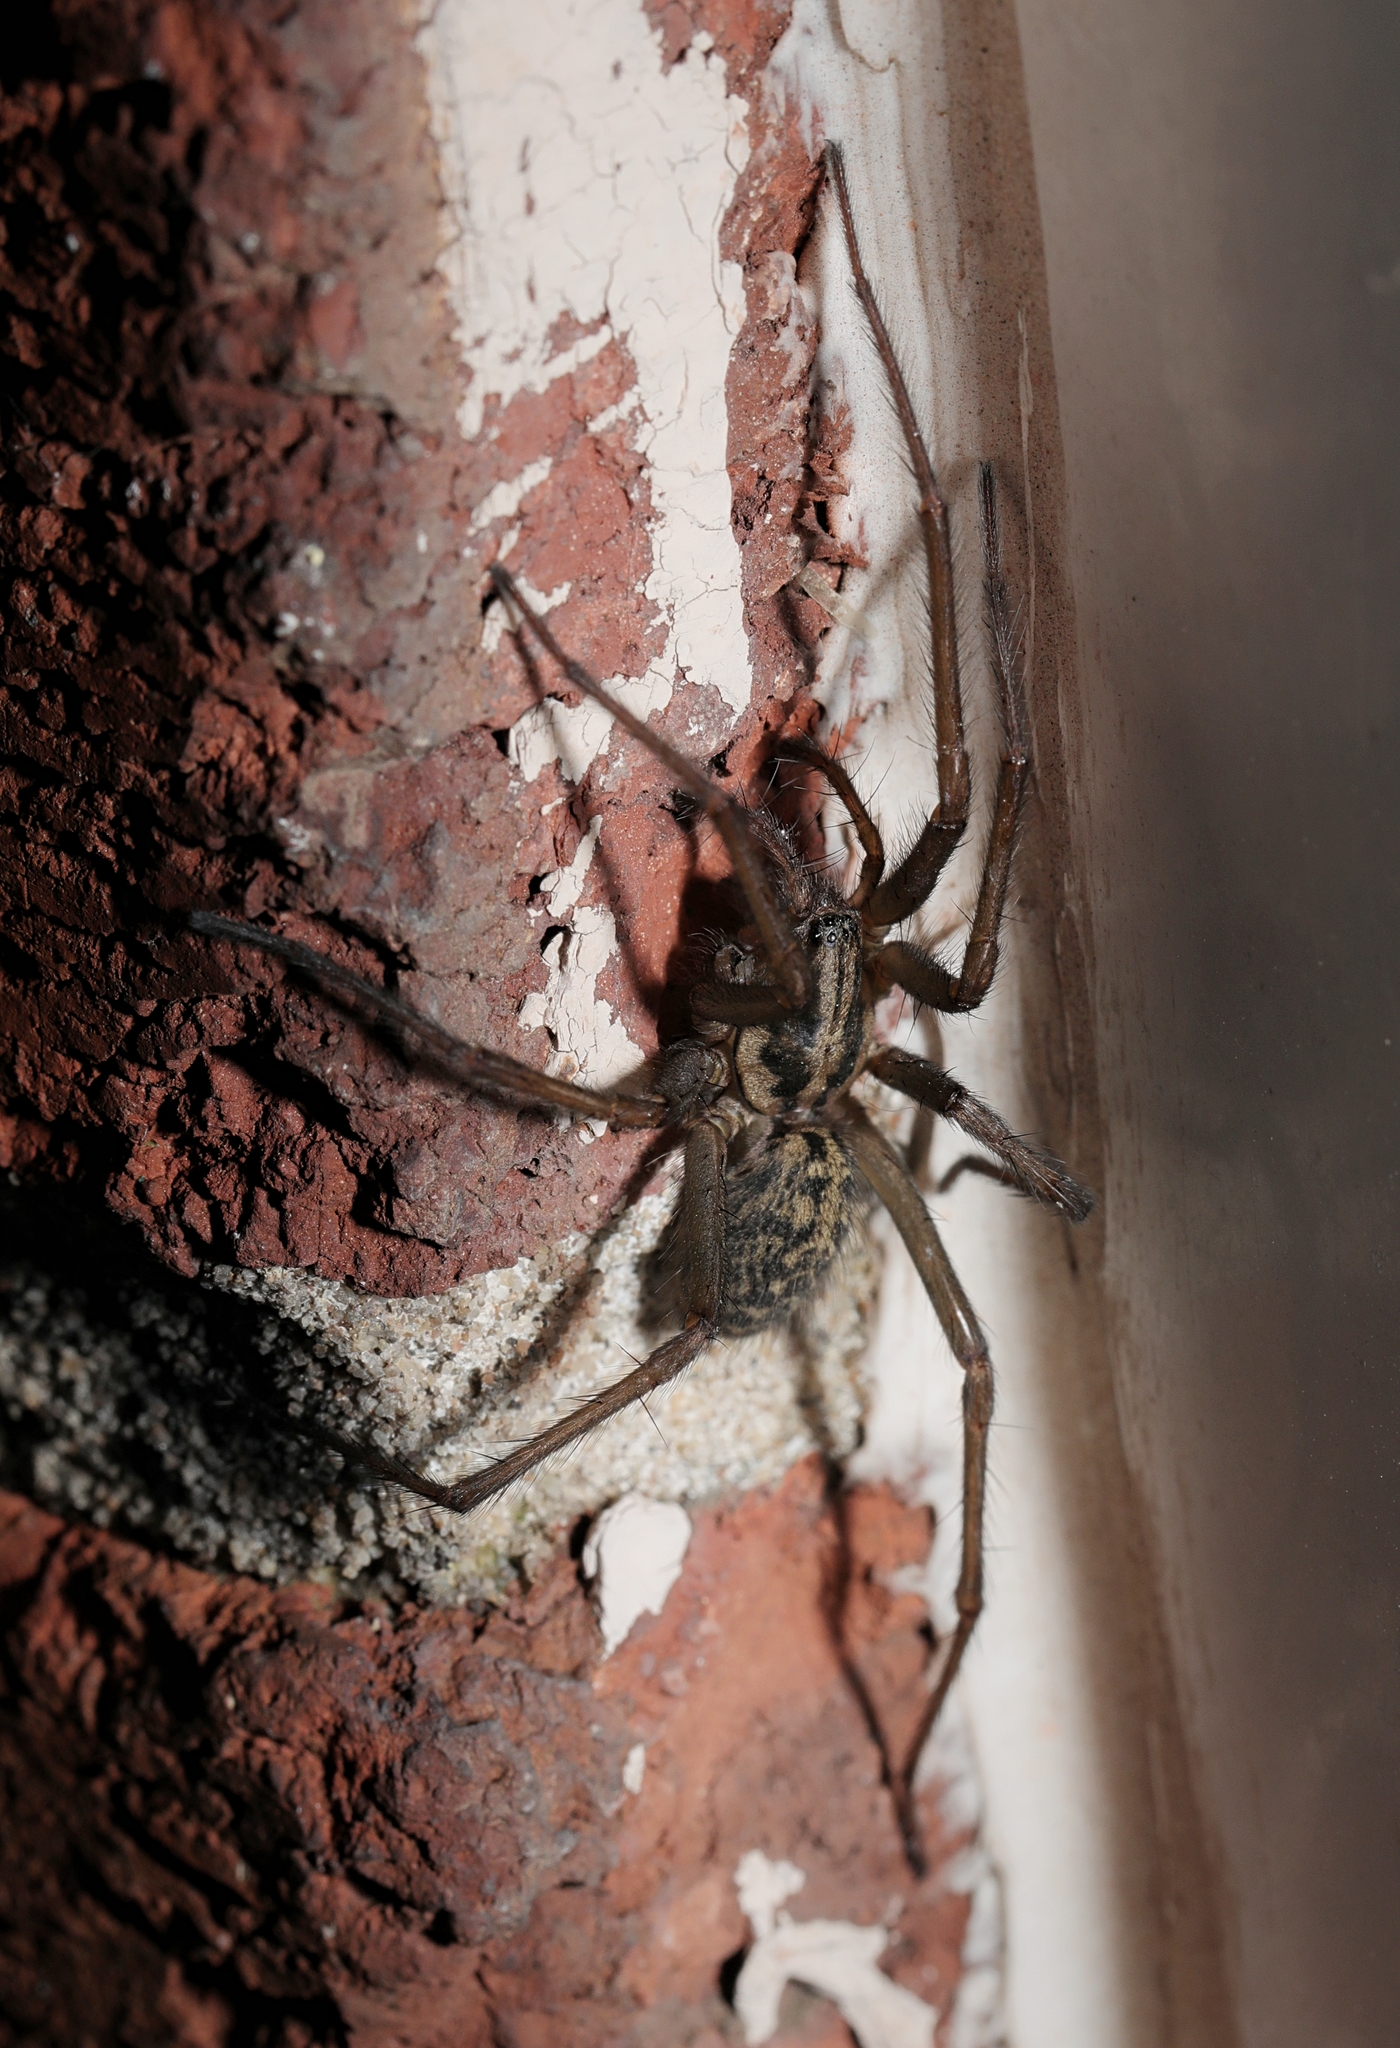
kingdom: Animalia
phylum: Arthropoda
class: Arachnida
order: Araneae
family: Agelenidae
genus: Eratigena
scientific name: Eratigena
